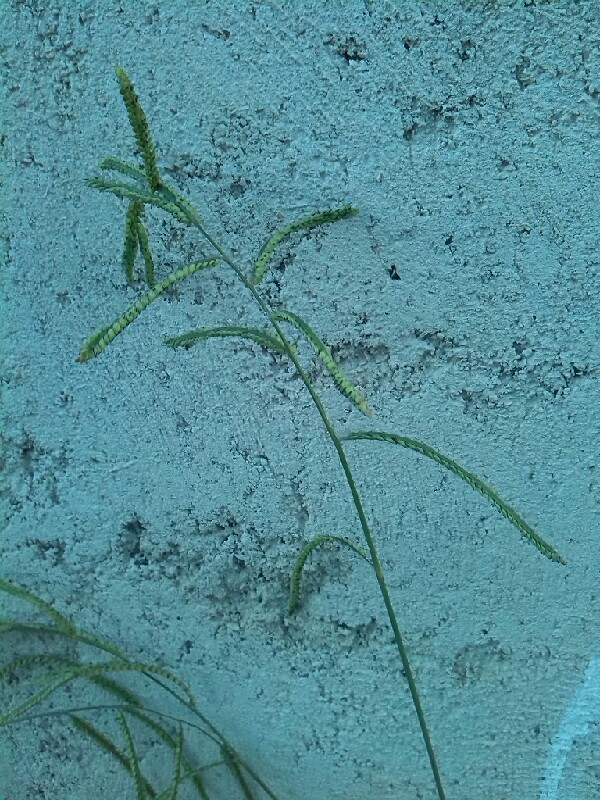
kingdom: Plantae
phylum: Tracheophyta
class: Liliopsida
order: Poales
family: Poaceae
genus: Paspalum
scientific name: Paspalum dilatatum
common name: Dallisgrass
